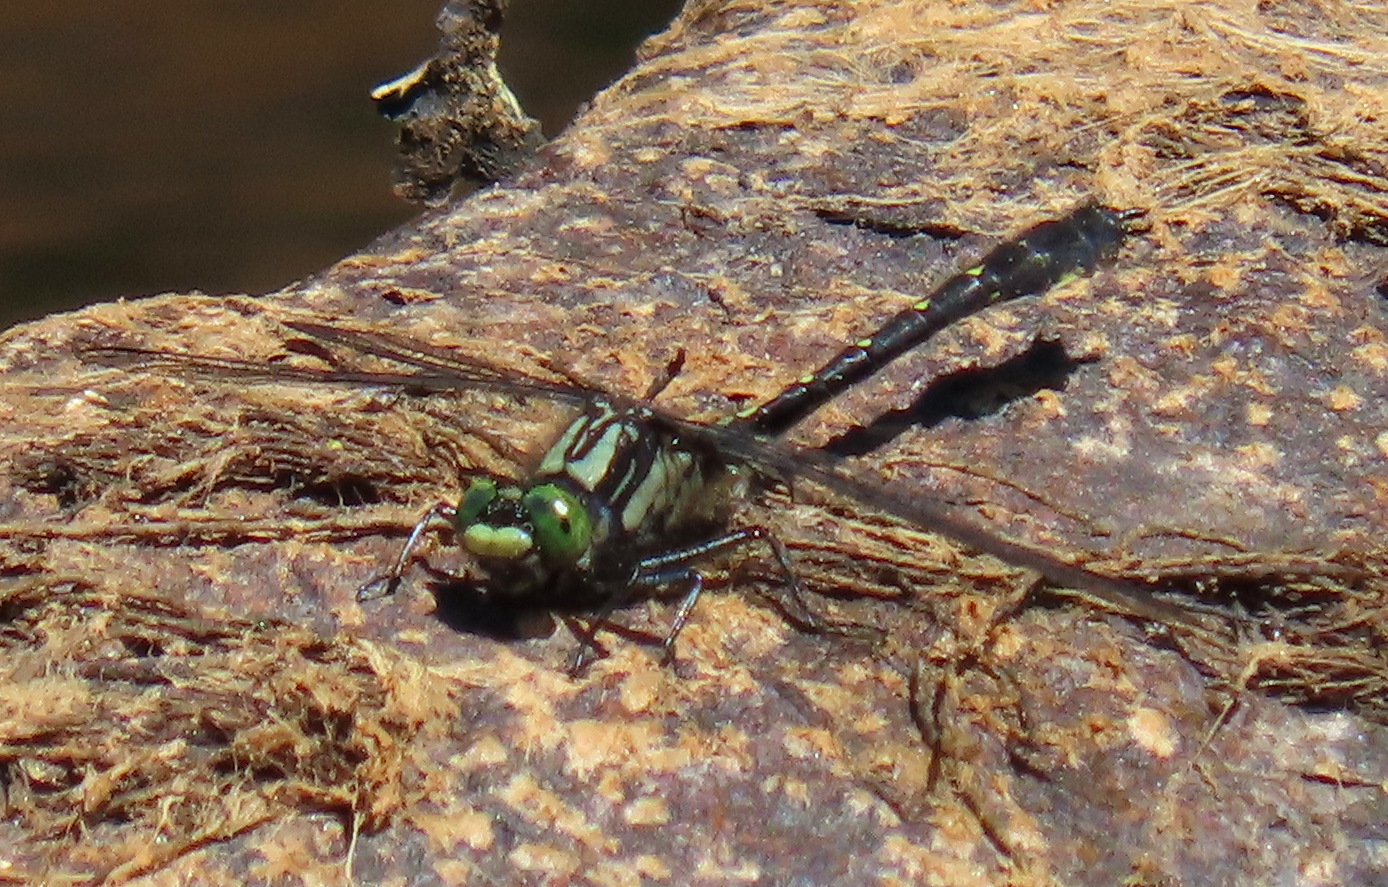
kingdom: Animalia
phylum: Arthropoda
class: Insecta
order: Odonata
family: Gomphidae
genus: Hylogomphus
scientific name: Hylogomphus adelphus
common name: Mustached clubtail
